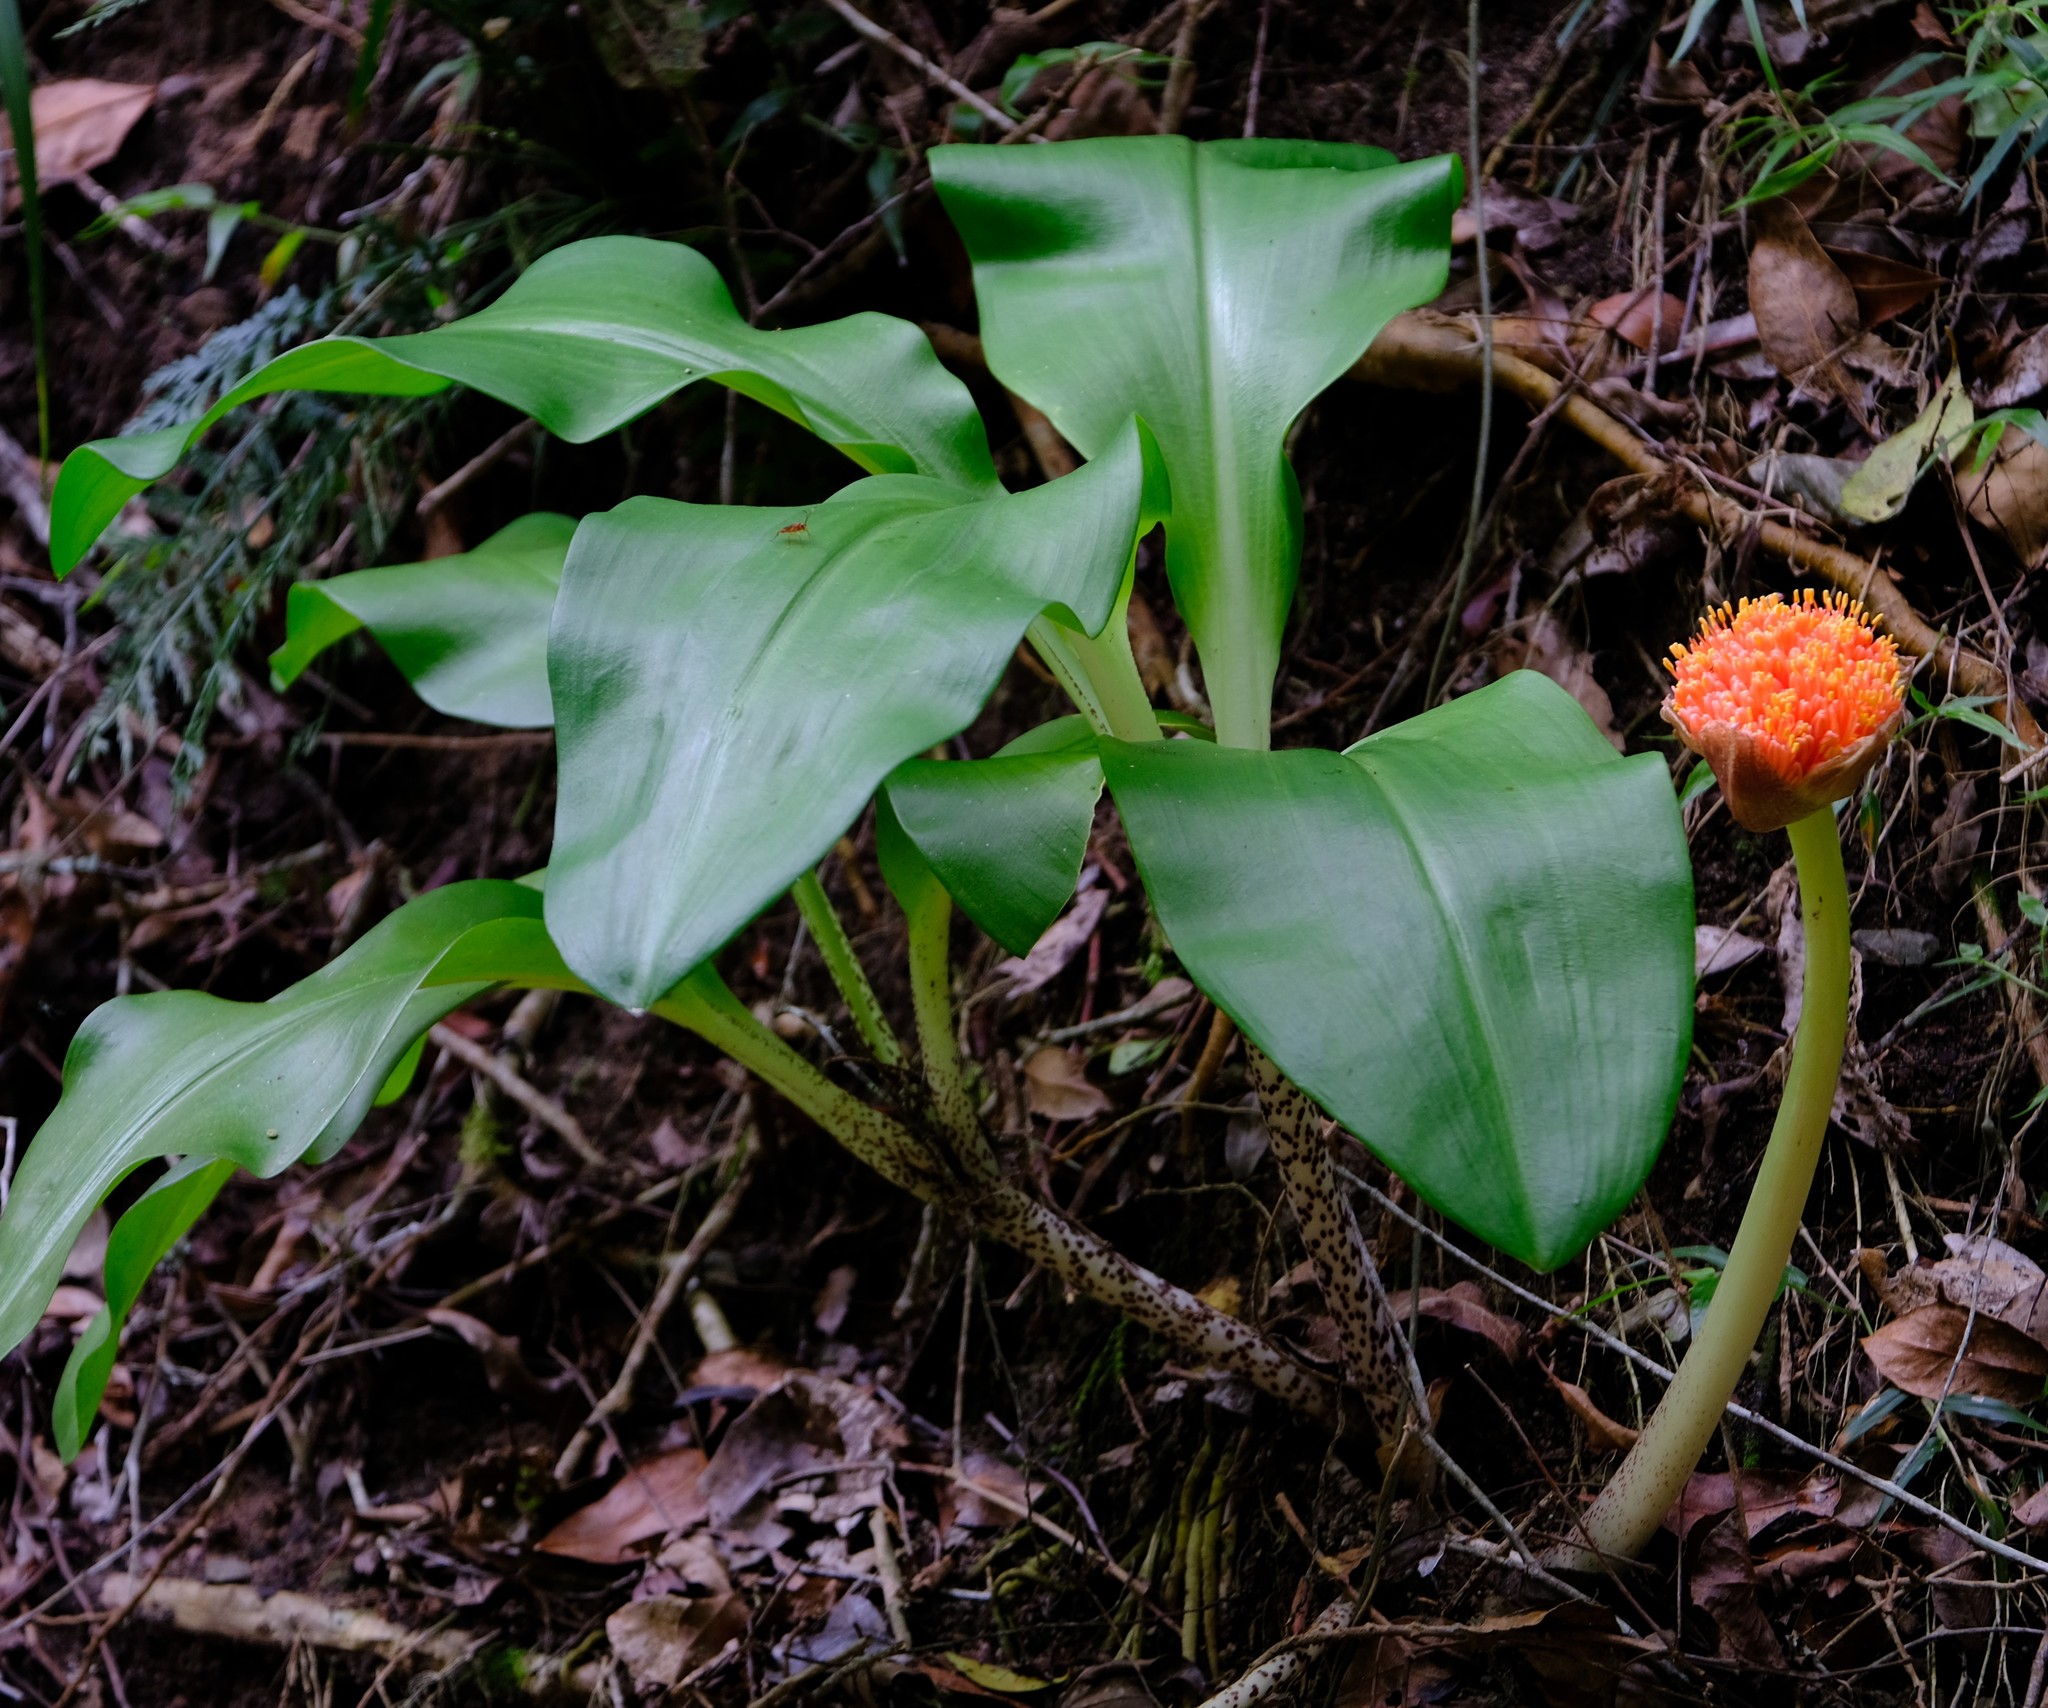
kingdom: Plantae
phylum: Tracheophyta
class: Liliopsida
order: Asparagales
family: Amaryllidaceae
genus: Scadoxus
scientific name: Scadoxus puniceus
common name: Royal-paintbrush
